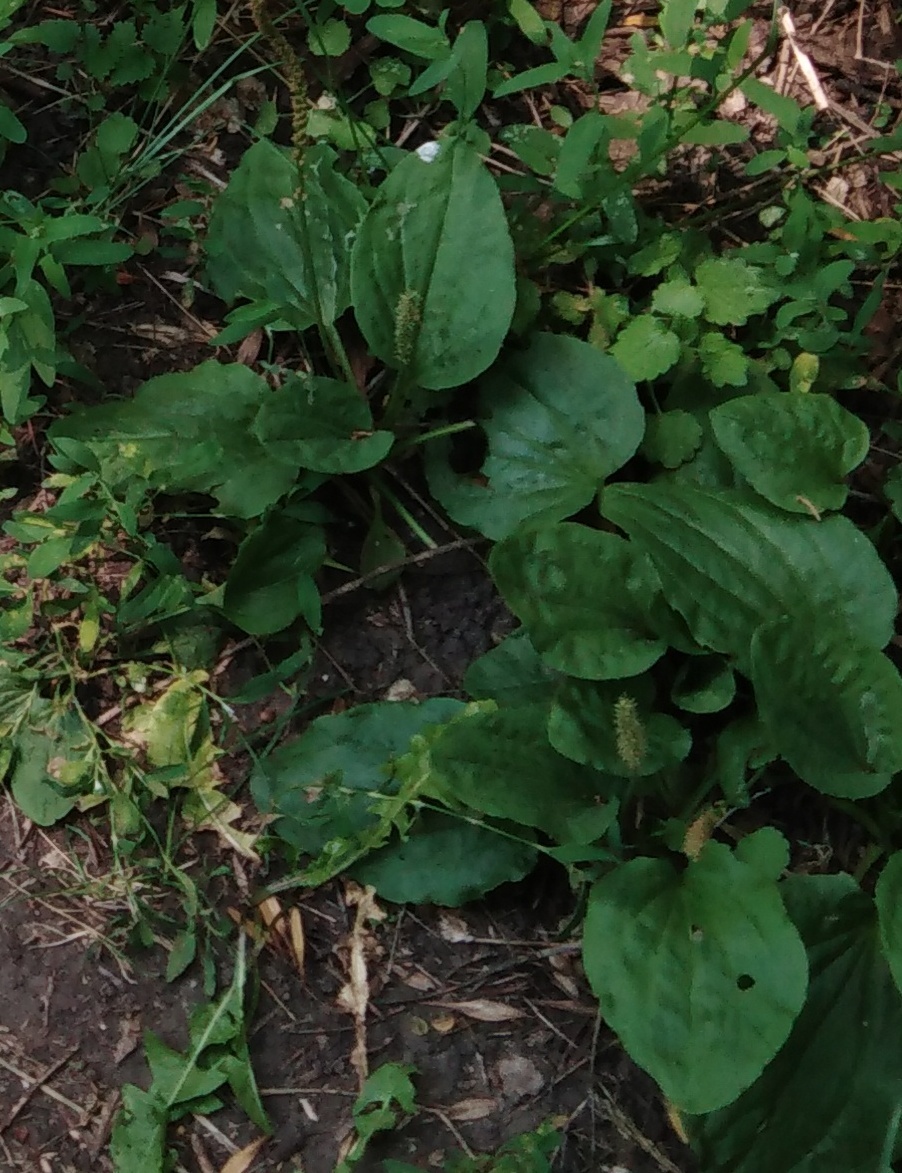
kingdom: Plantae
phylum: Tracheophyta
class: Magnoliopsida
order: Lamiales
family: Plantaginaceae
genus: Plantago
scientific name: Plantago major
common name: Common plantain
